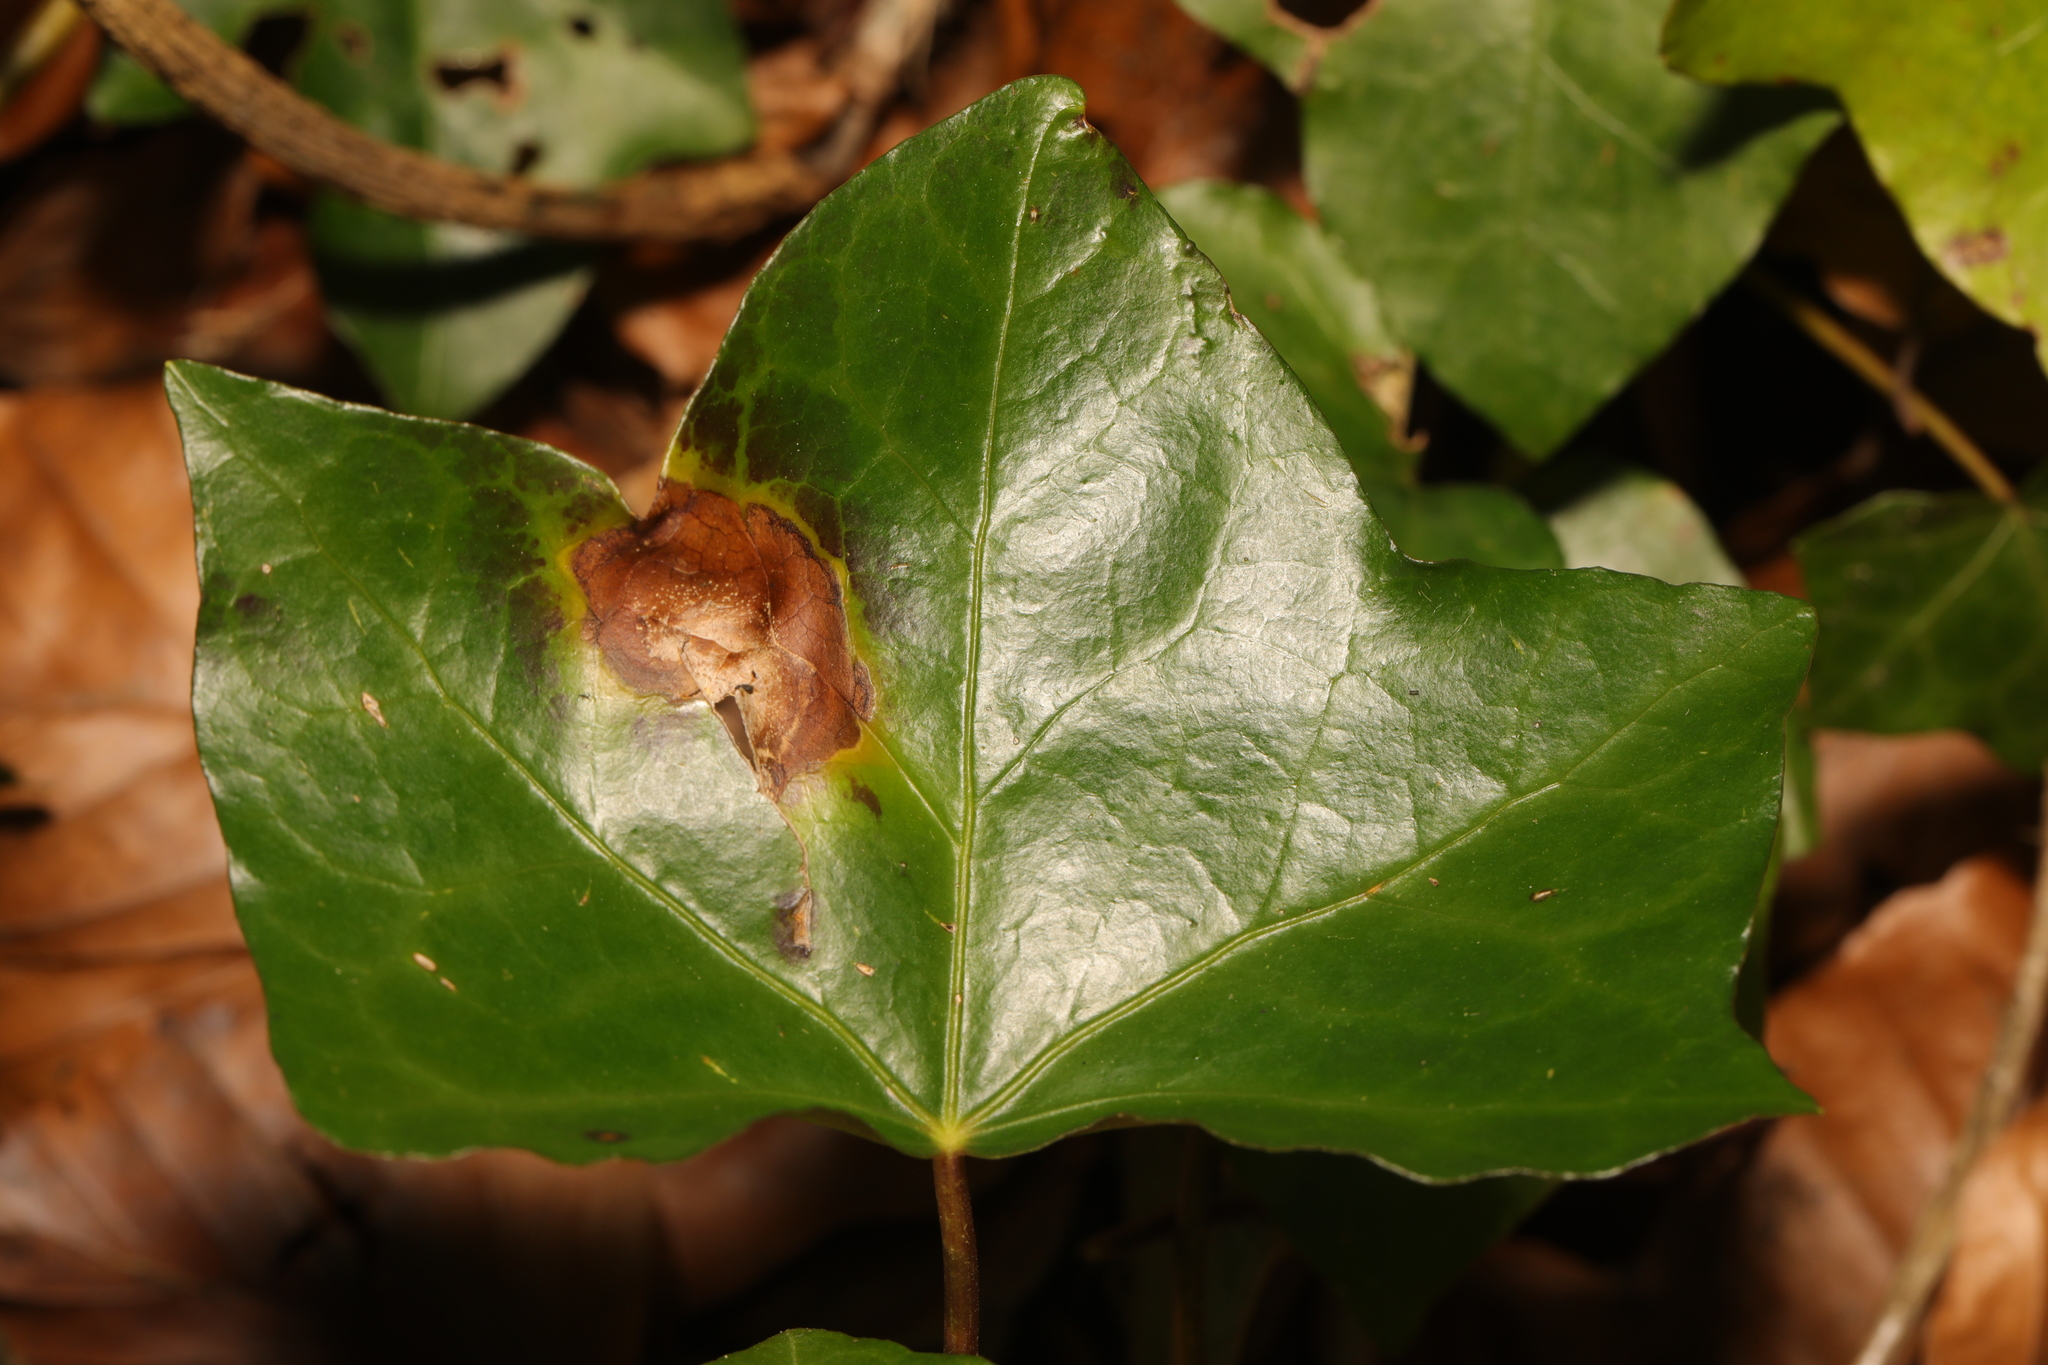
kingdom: Fungi
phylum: Ascomycota
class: Dothideomycetes
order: Pleosporales
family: Didymellaceae
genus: Boeremia
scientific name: Boeremia hedericola
